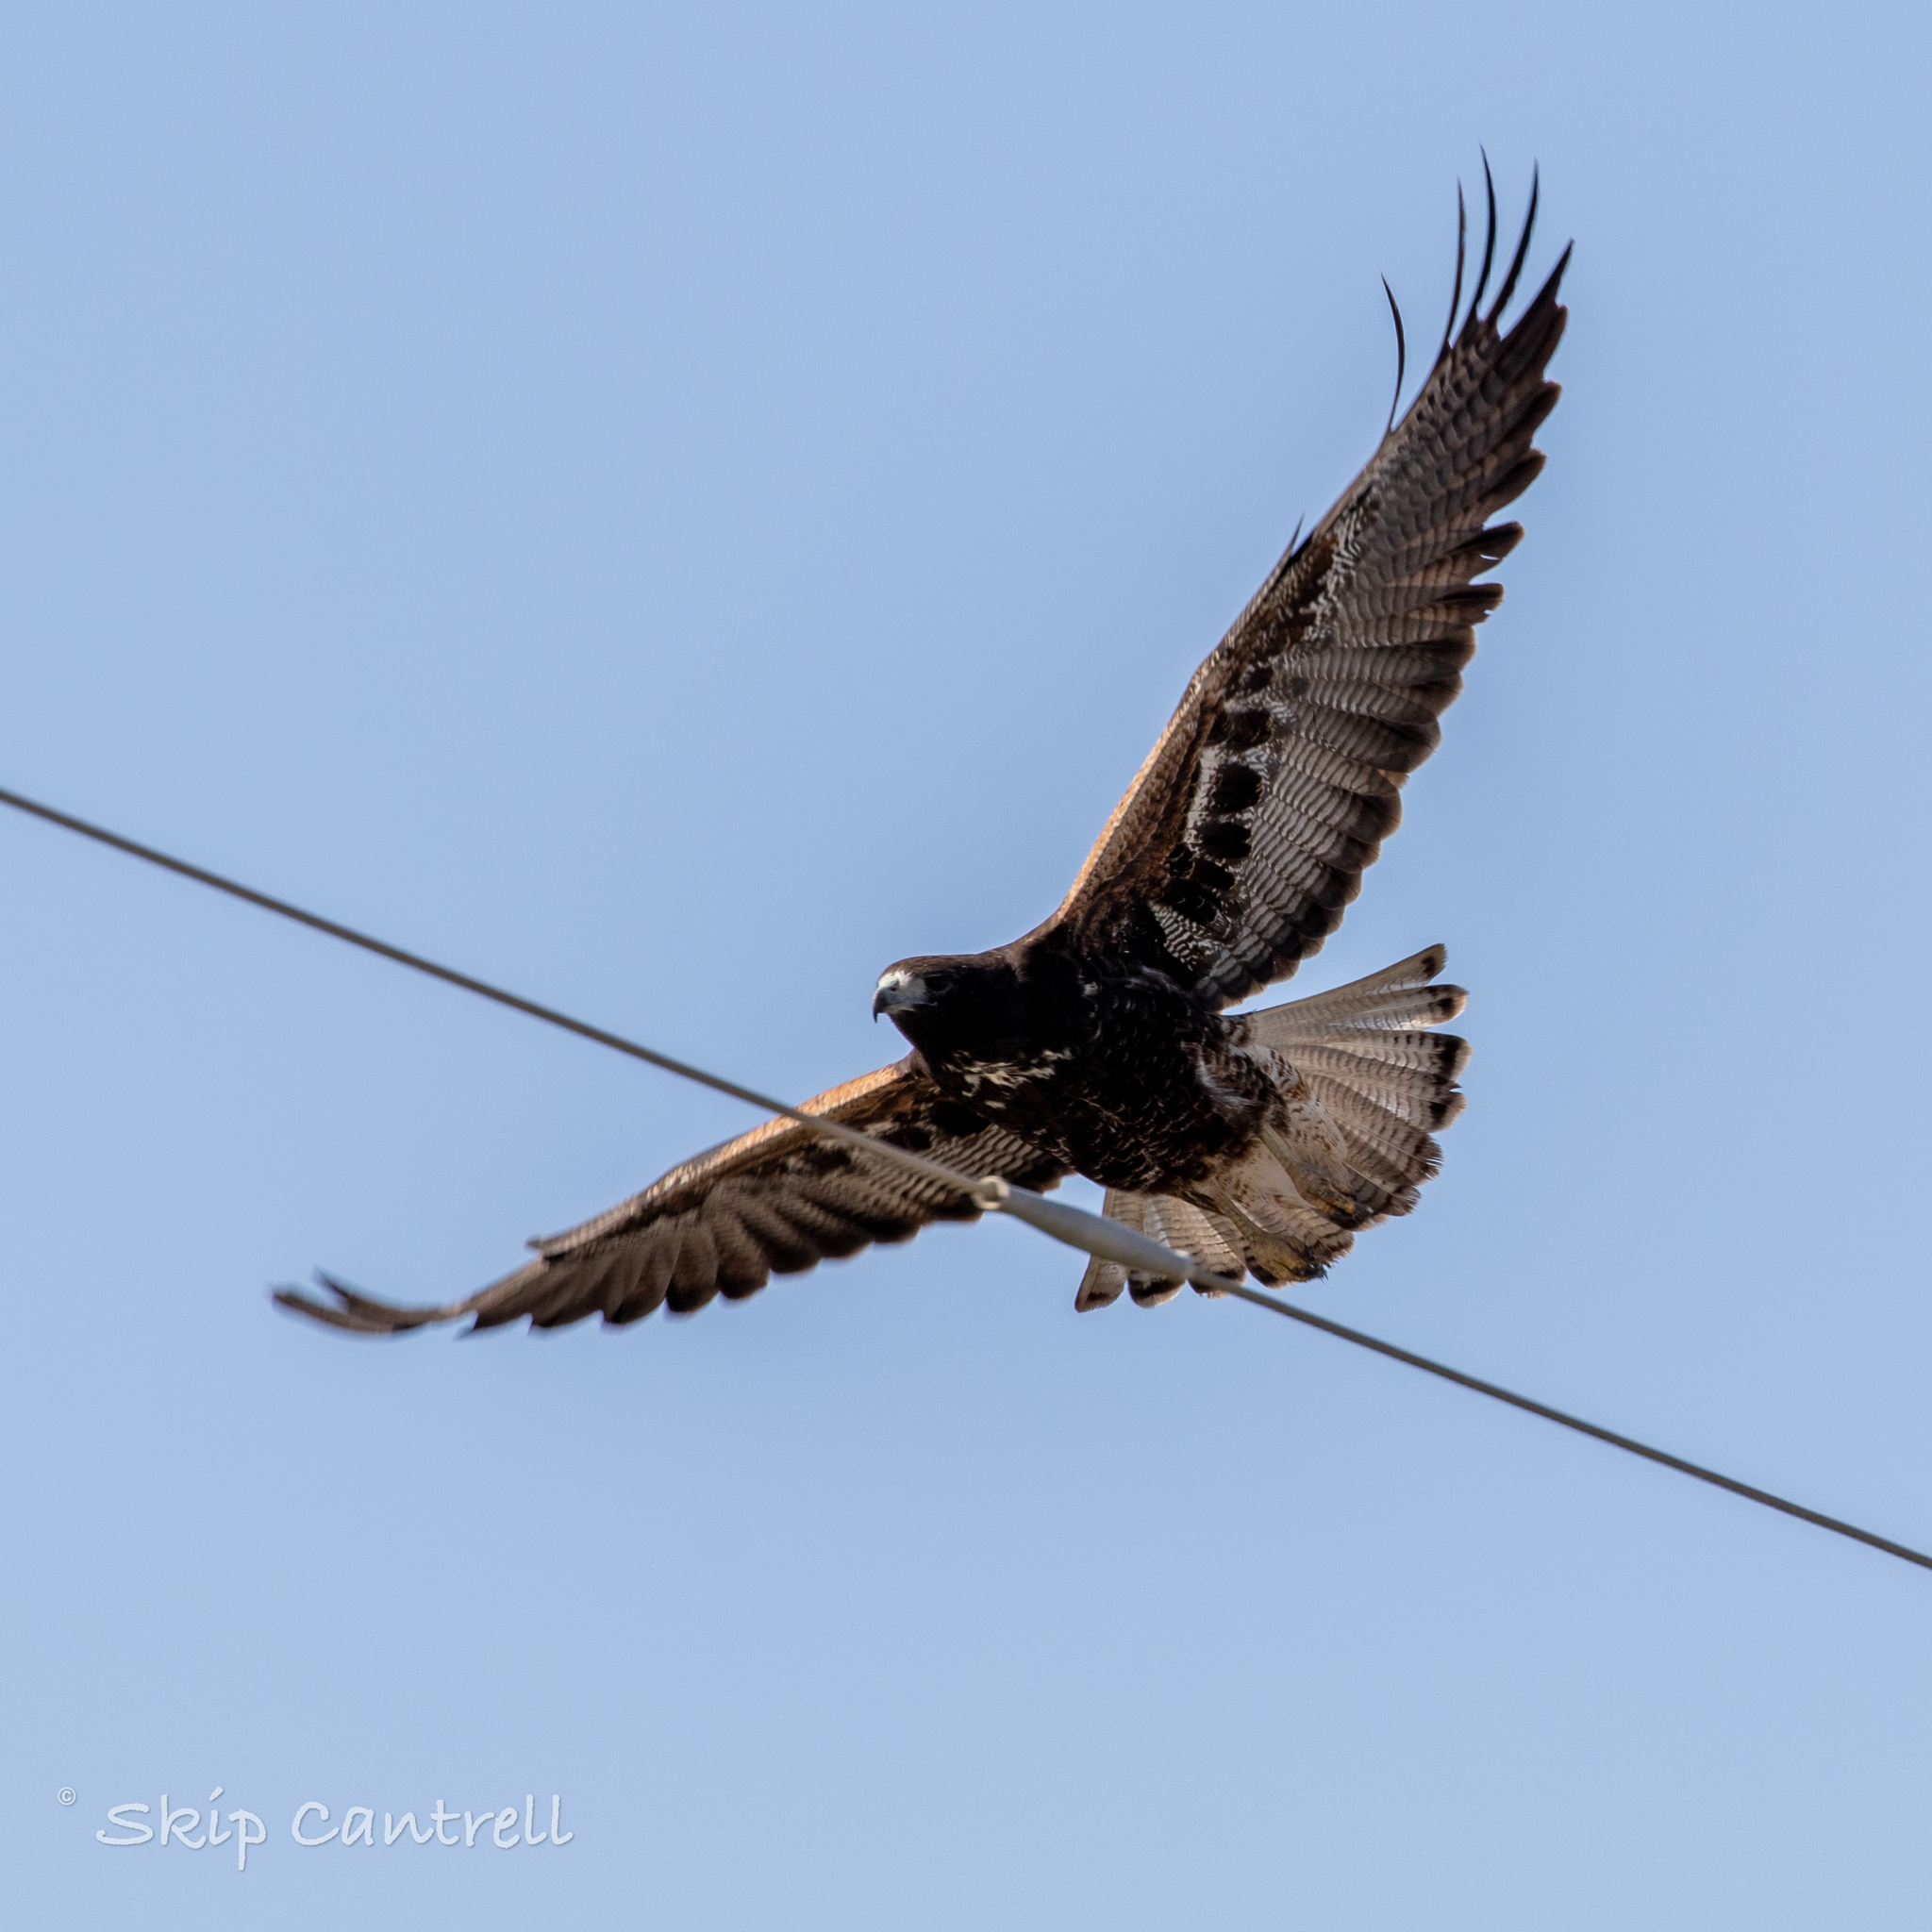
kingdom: Animalia
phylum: Chordata
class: Aves
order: Accipitriformes
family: Accipitridae
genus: Buteo
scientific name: Buteo albicaudatus
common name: White-tailed hawk
